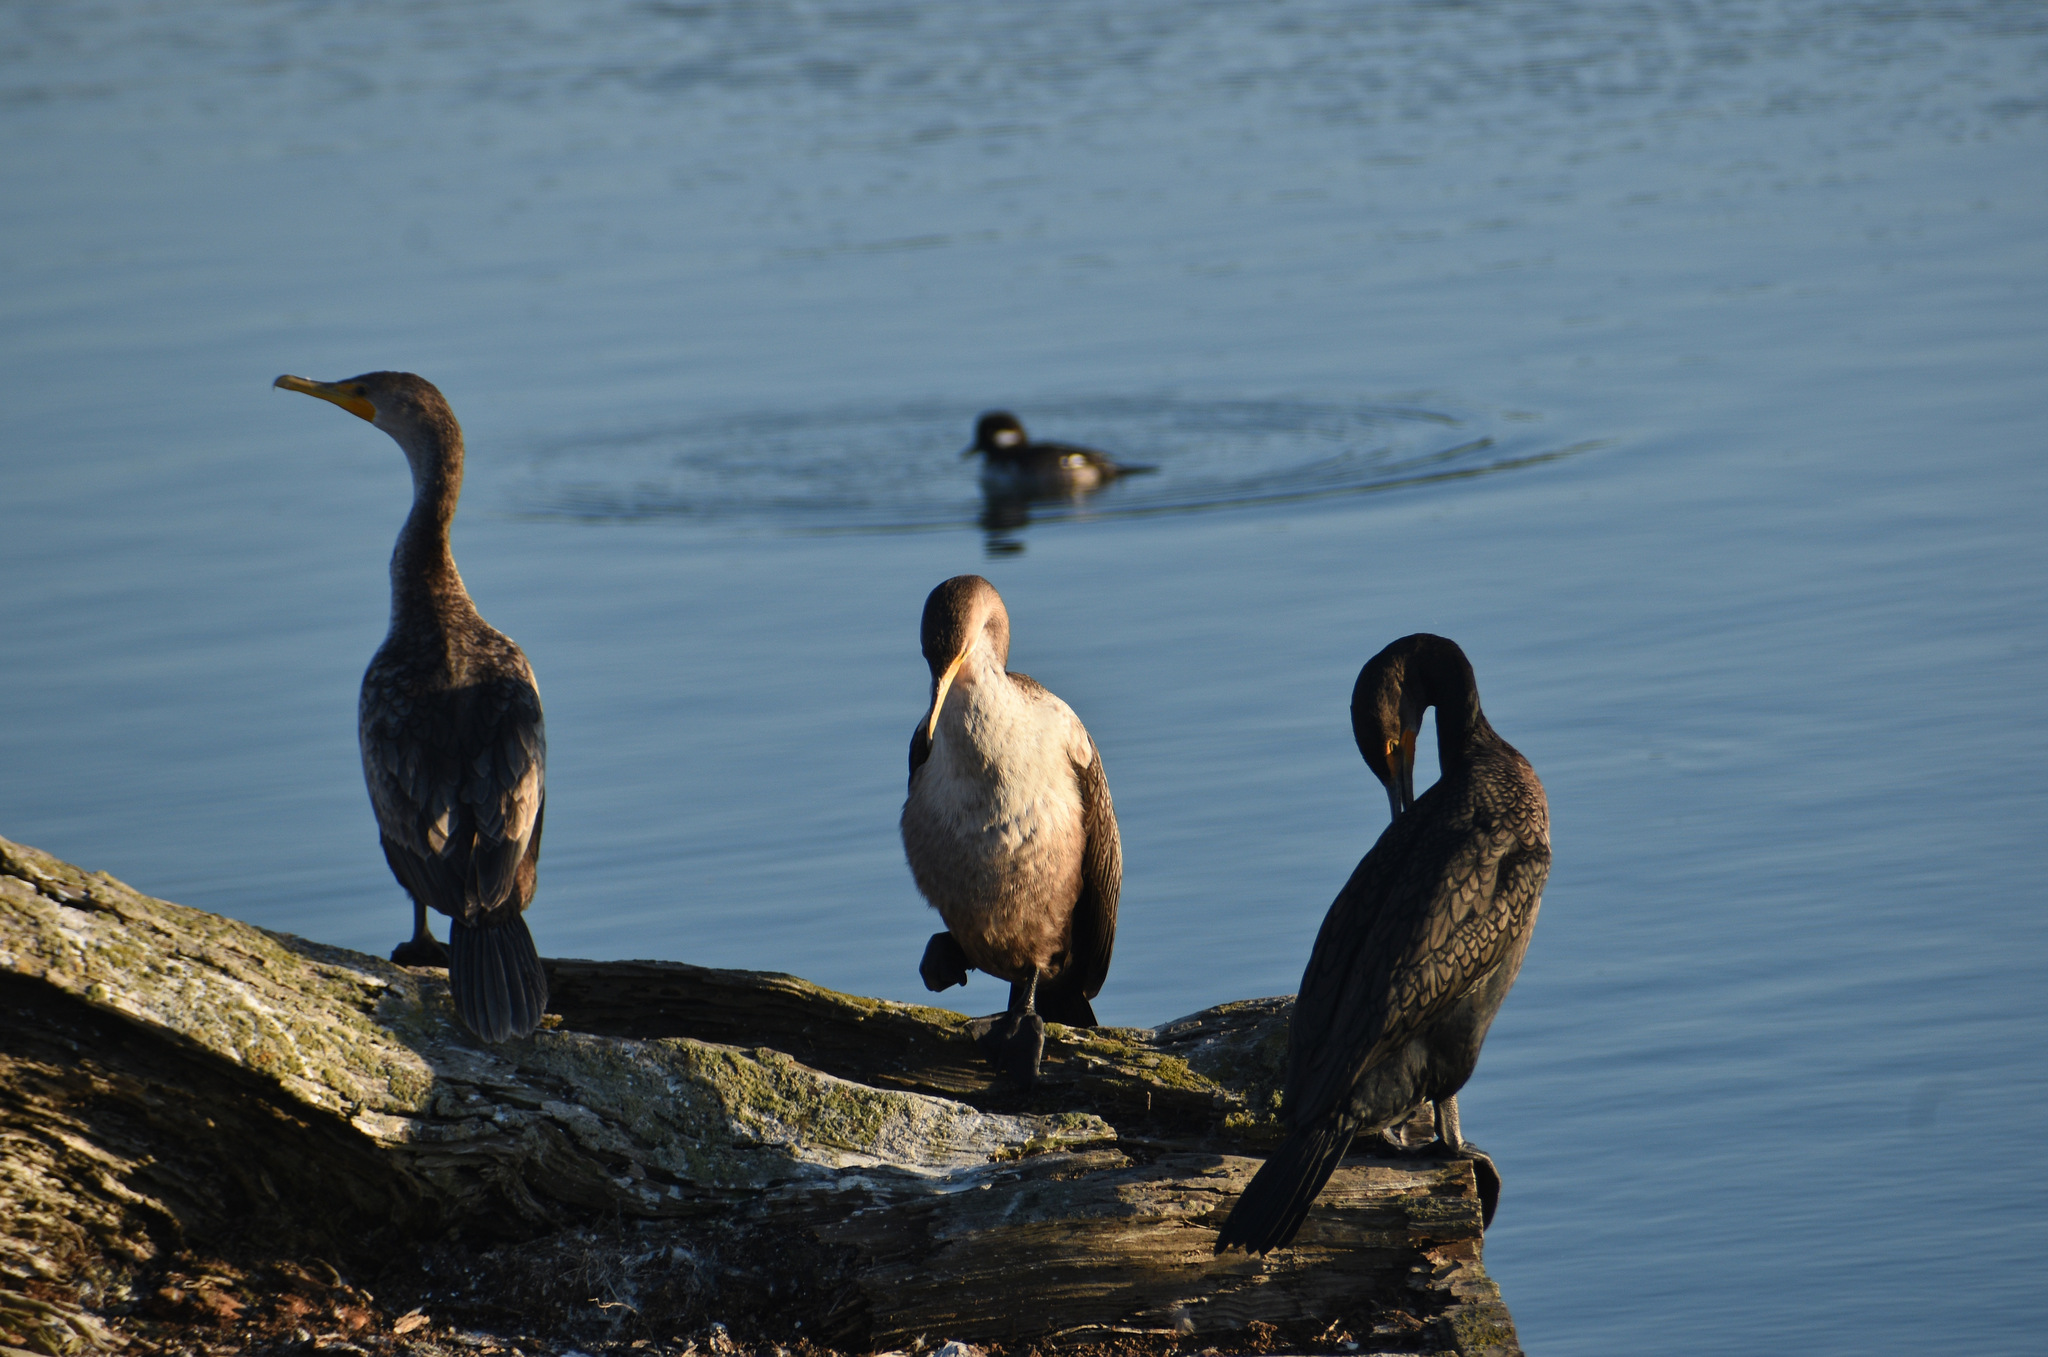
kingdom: Animalia
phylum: Chordata
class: Aves
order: Suliformes
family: Phalacrocoracidae
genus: Phalacrocorax
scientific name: Phalacrocorax auritus
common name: Double-crested cormorant
